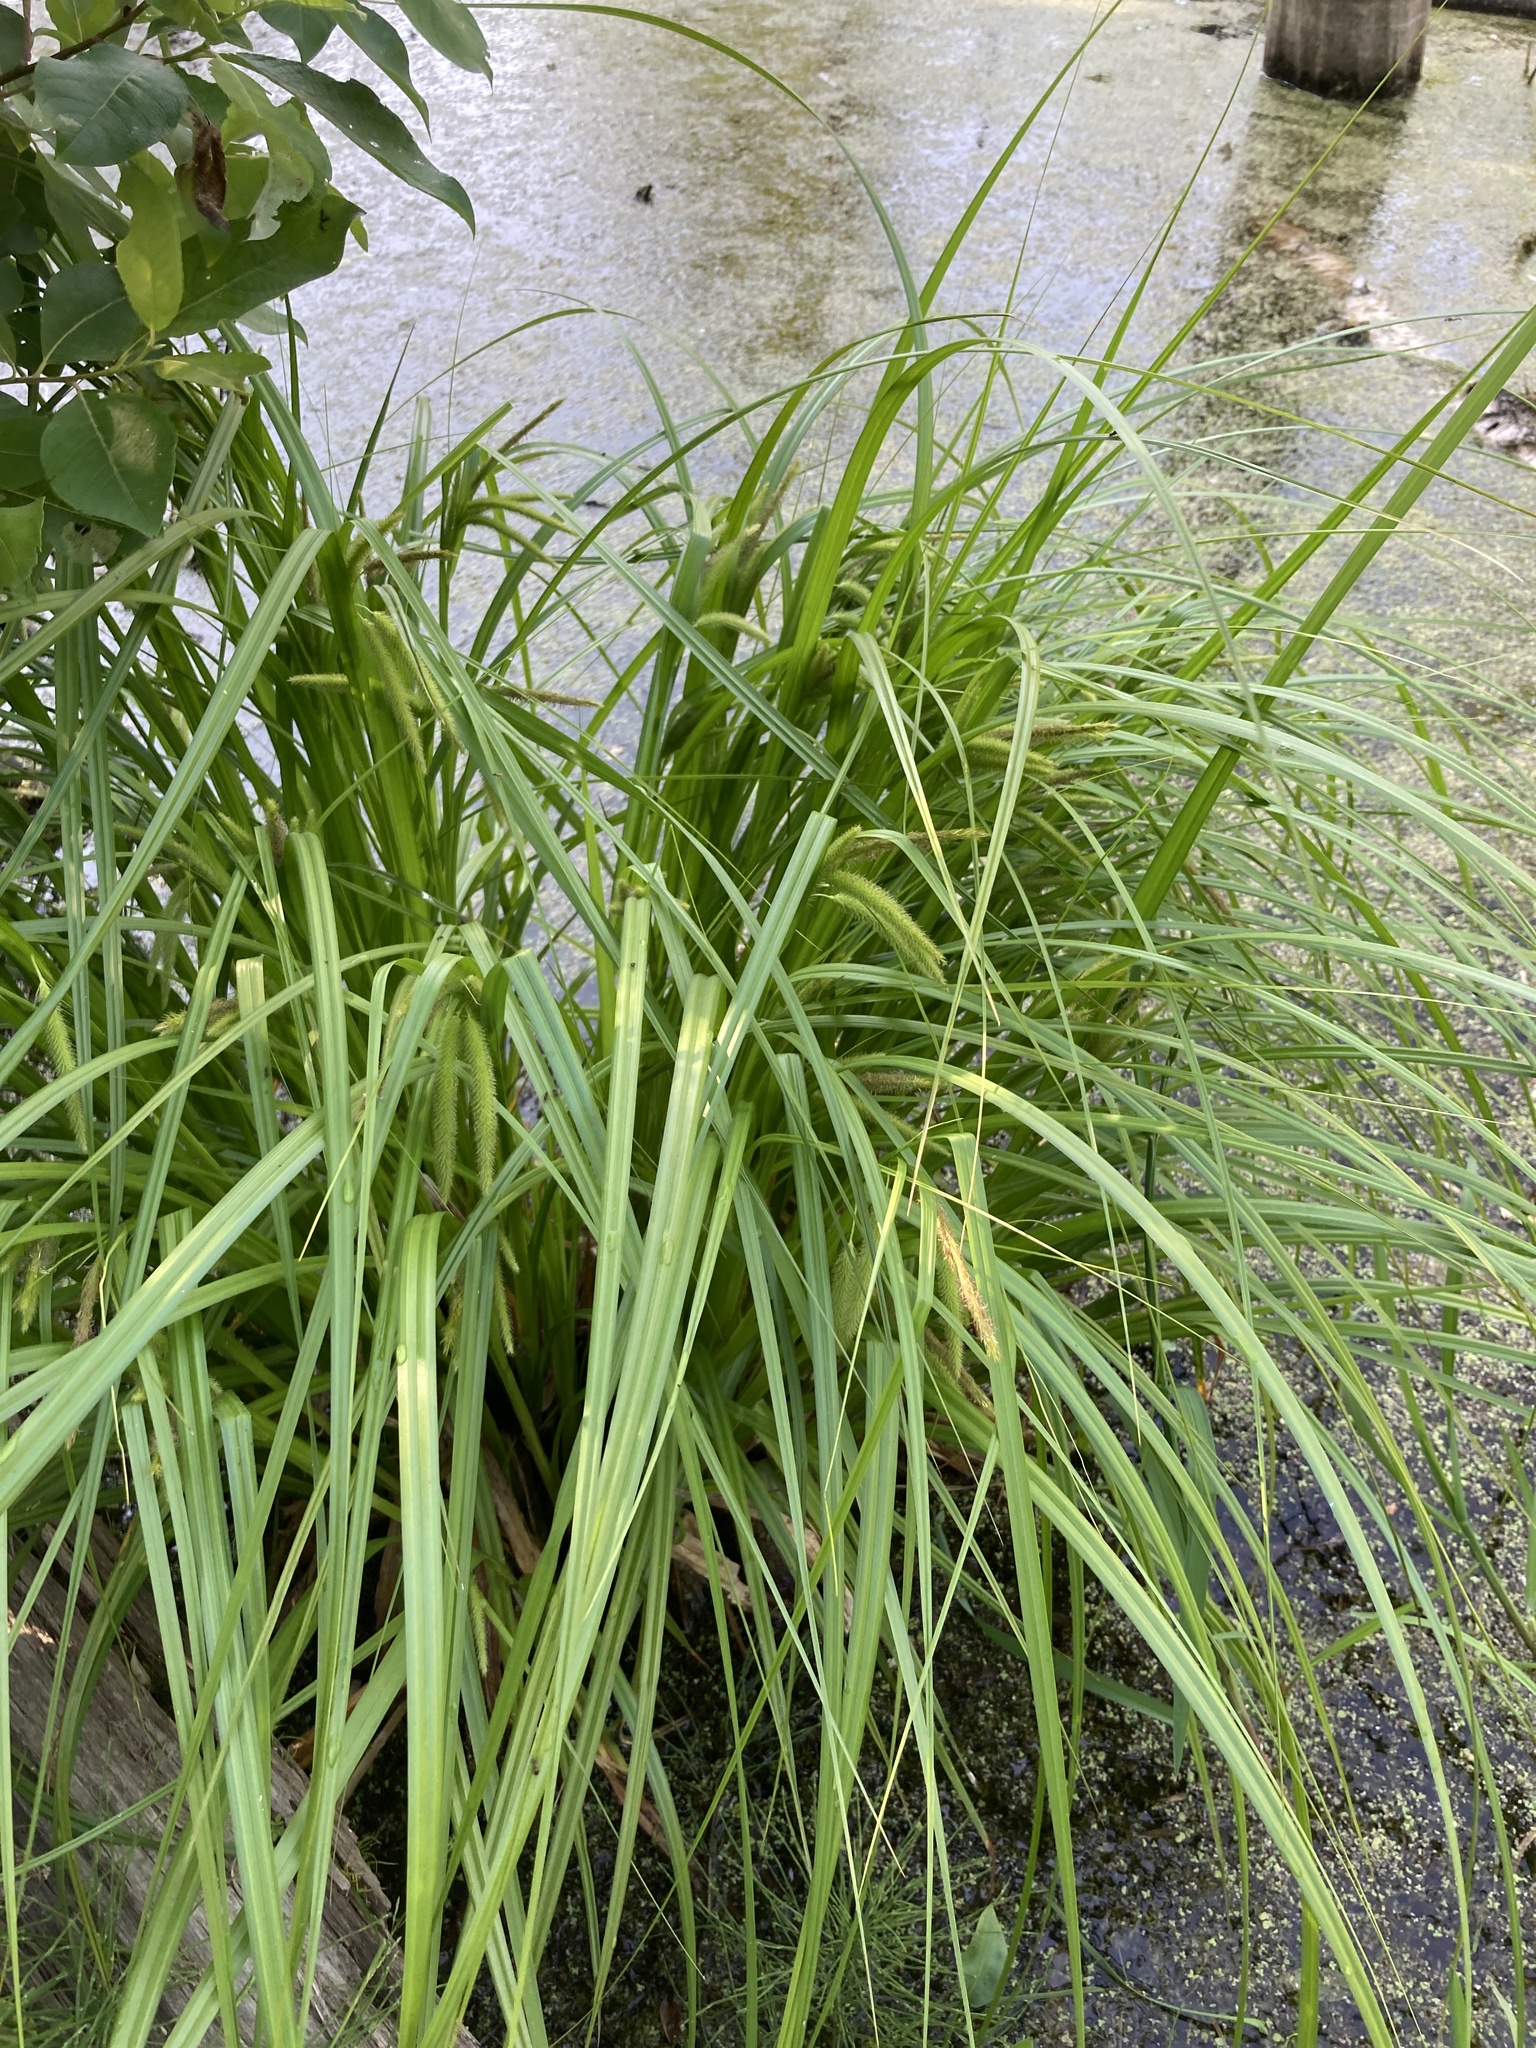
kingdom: Plantae
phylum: Tracheophyta
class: Liliopsida
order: Poales
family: Cyperaceae
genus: Carex
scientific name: Carex pseudocyperus
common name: Cyperus sedge
